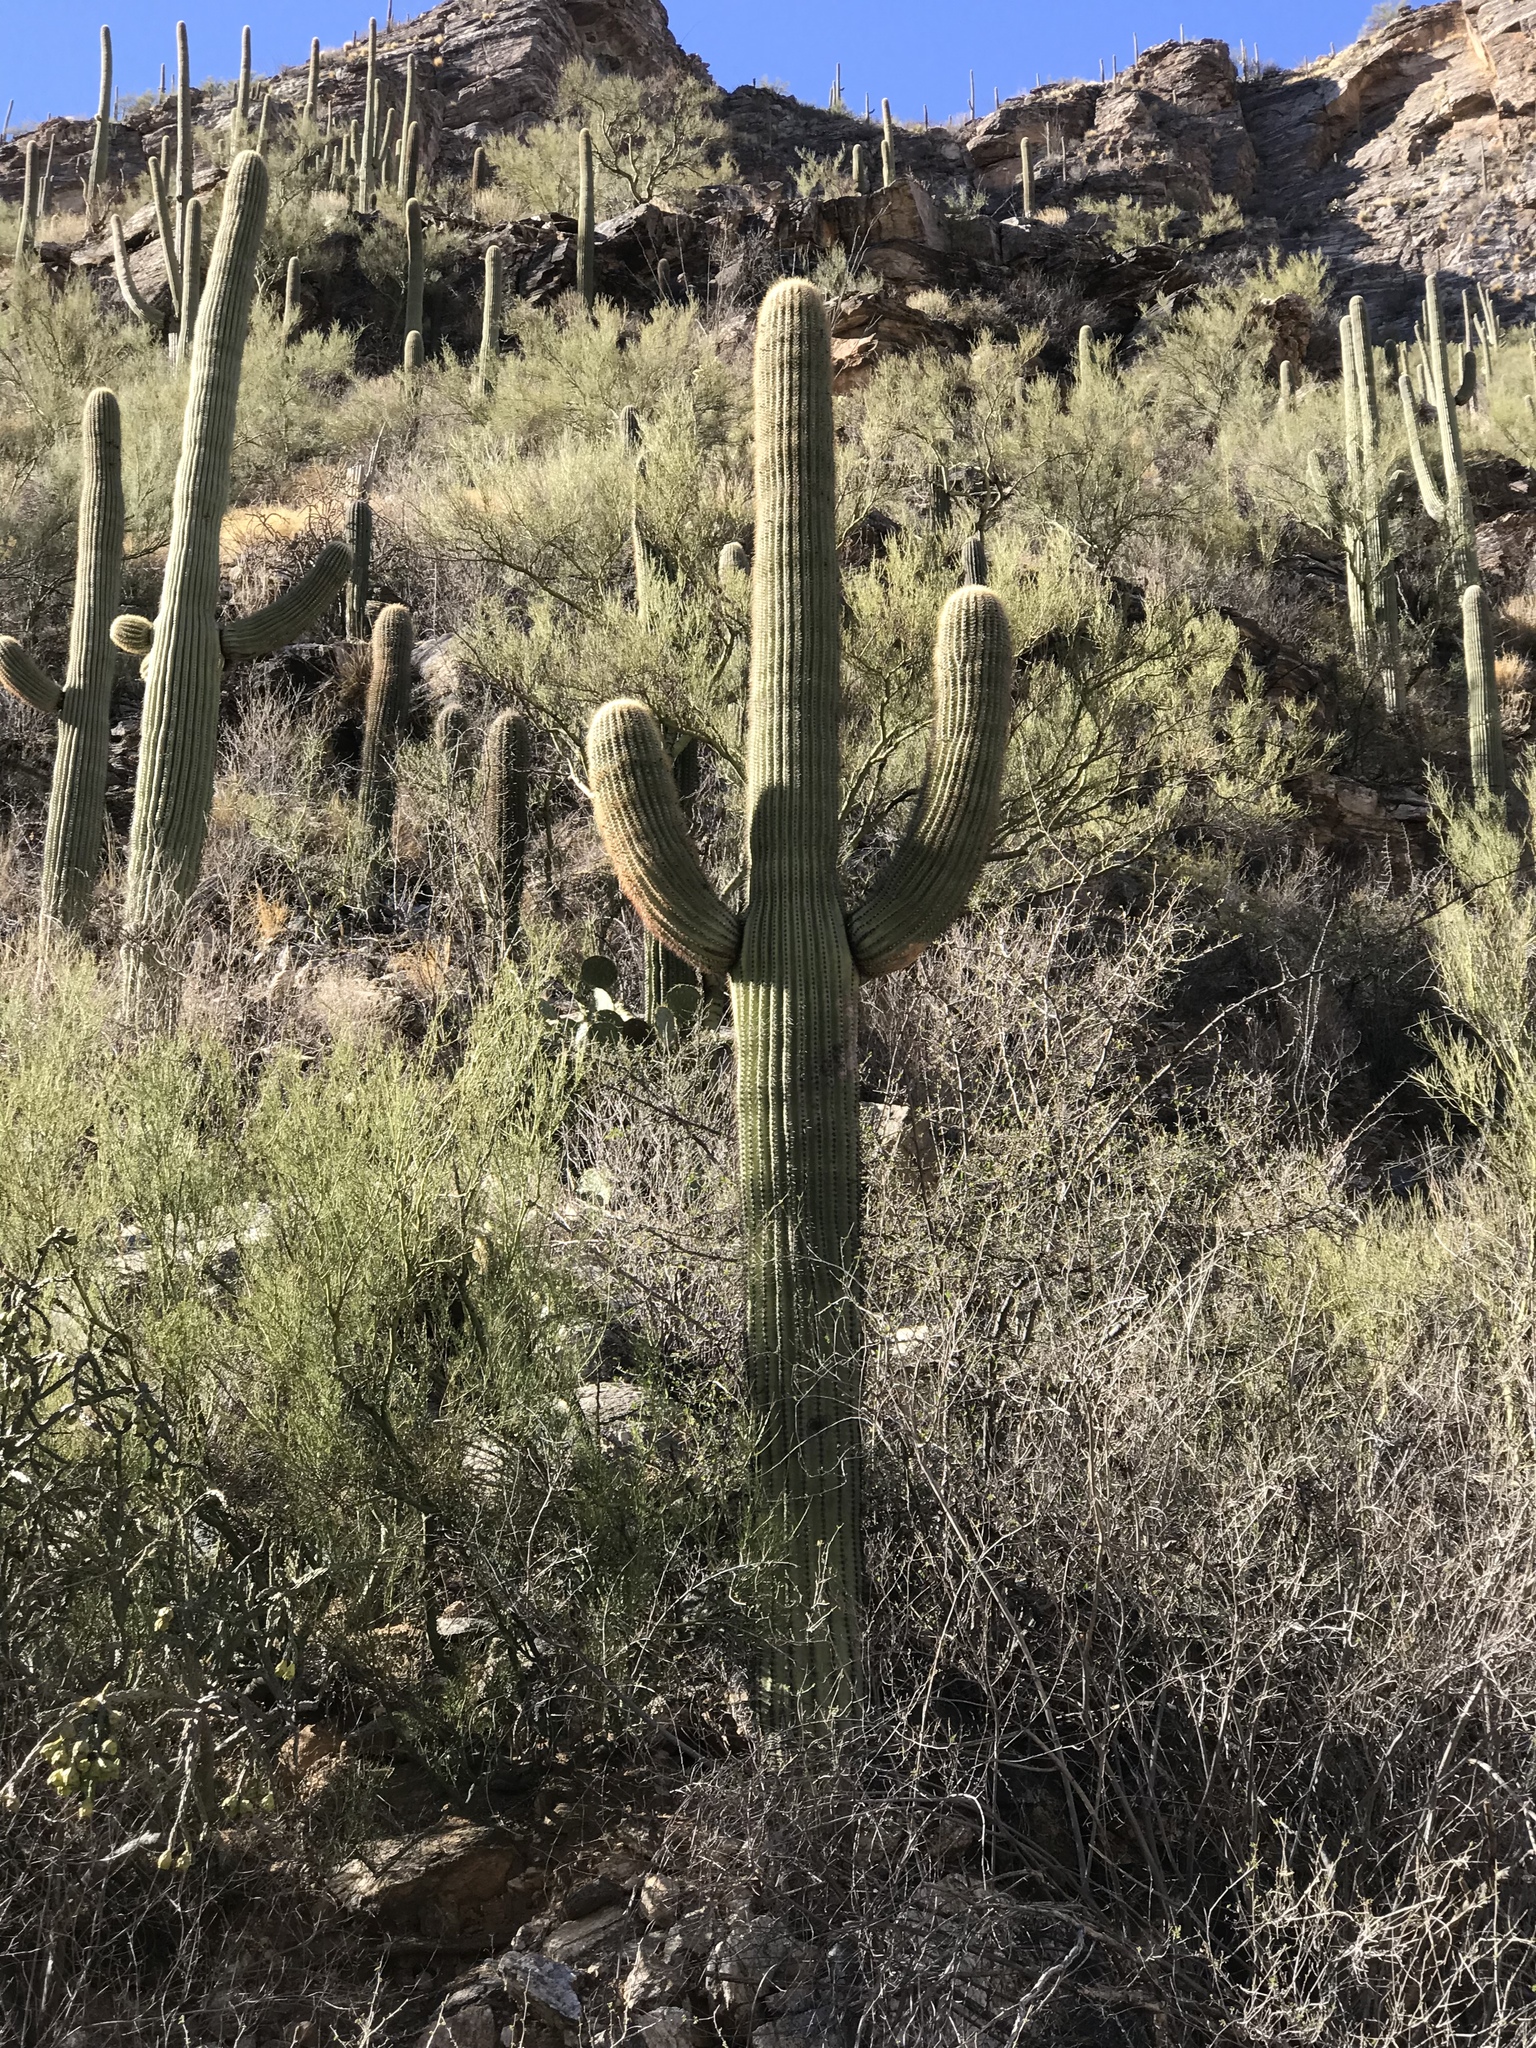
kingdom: Plantae
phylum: Tracheophyta
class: Magnoliopsida
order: Caryophyllales
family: Cactaceae
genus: Carnegiea
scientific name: Carnegiea gigantea
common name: Saguaro
